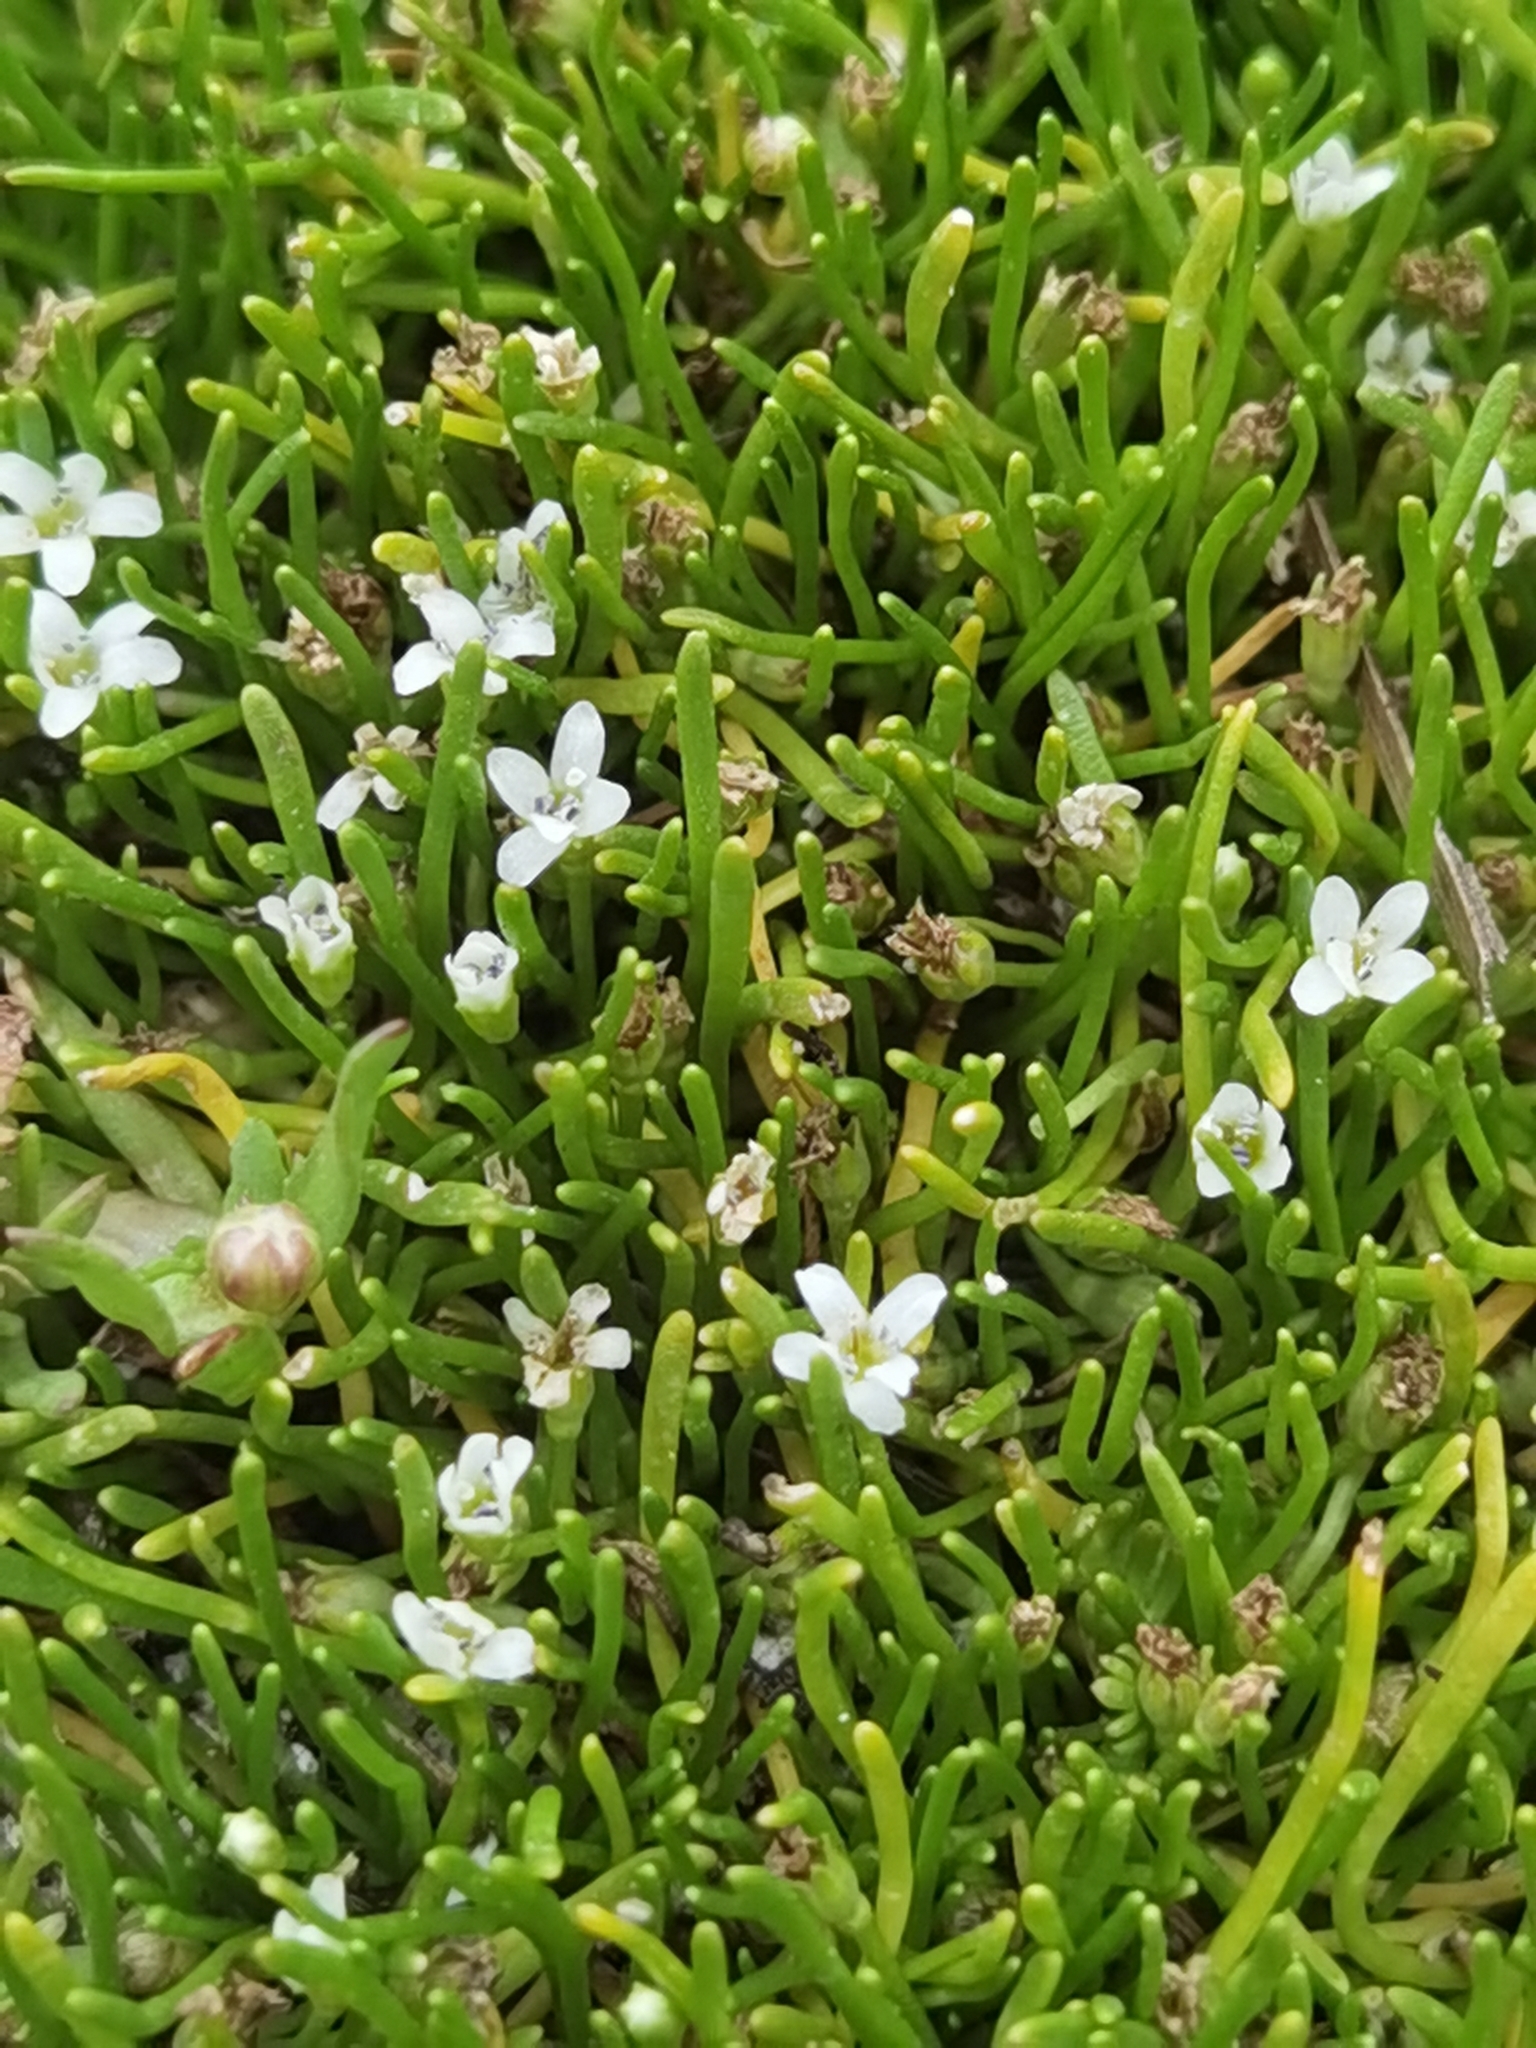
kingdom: Plantae
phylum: Tracheophyta
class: Magnoliopsida
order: Lamiales
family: Scrophulariaceae
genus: Limosella
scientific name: Limosella australis
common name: Welsh mudwort
